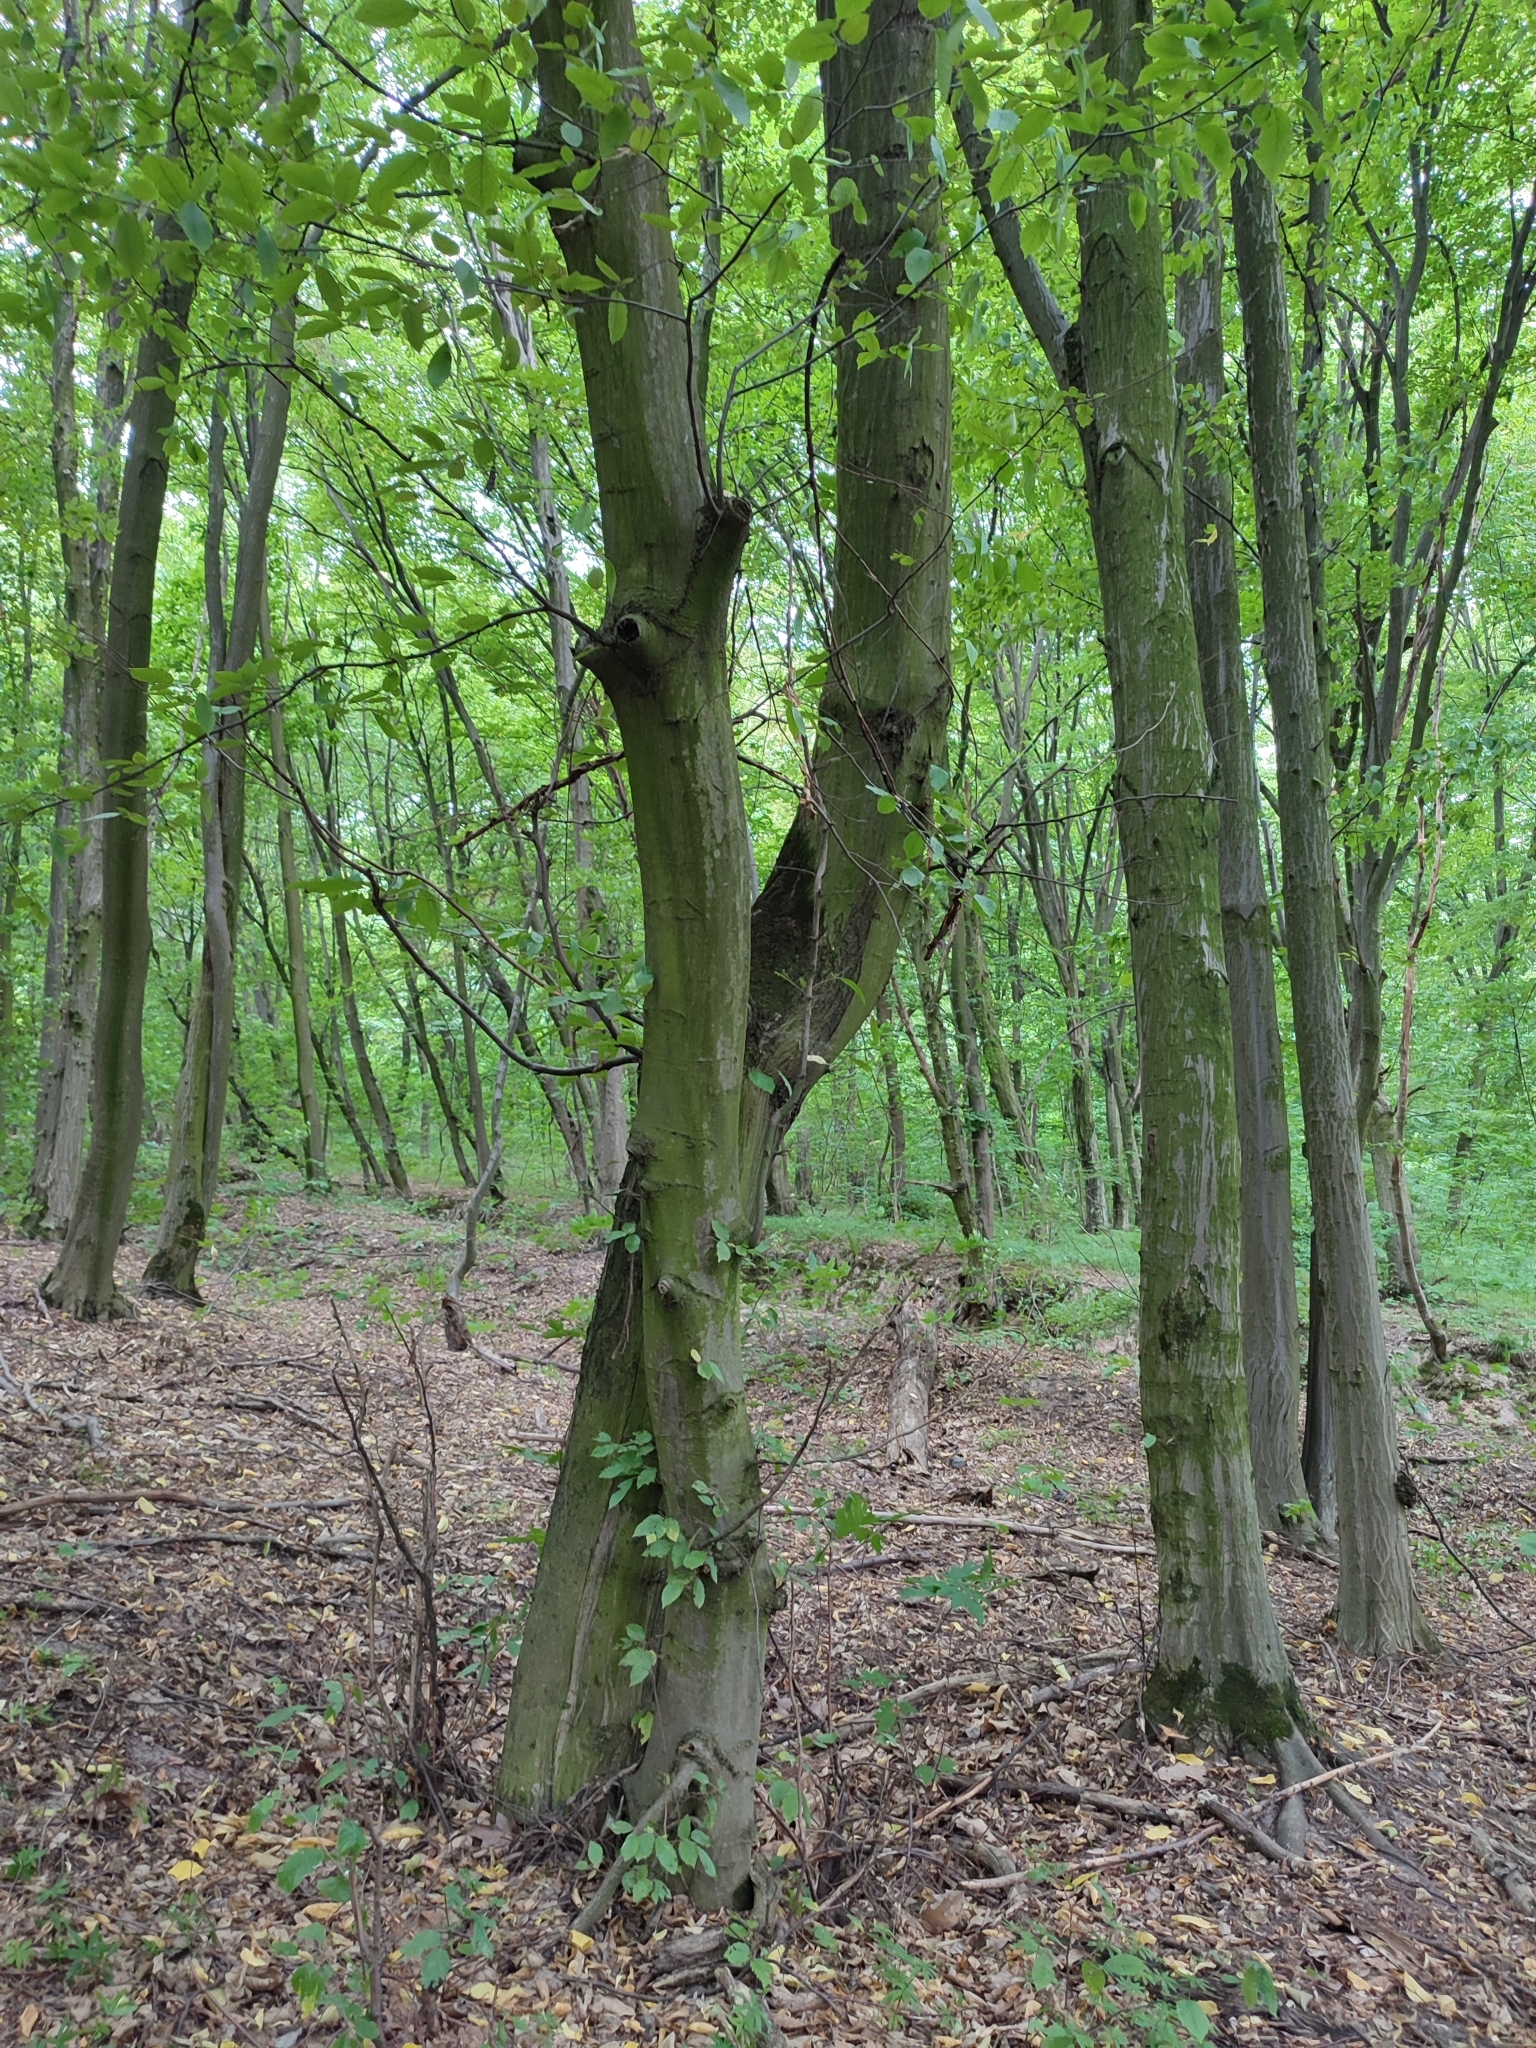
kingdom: Plantae
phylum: Tracheophyta
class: Magnoliopsida
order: Fagales
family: Betulaceae
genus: Carpinus
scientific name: Carpinus betulus
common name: Hornbeam
